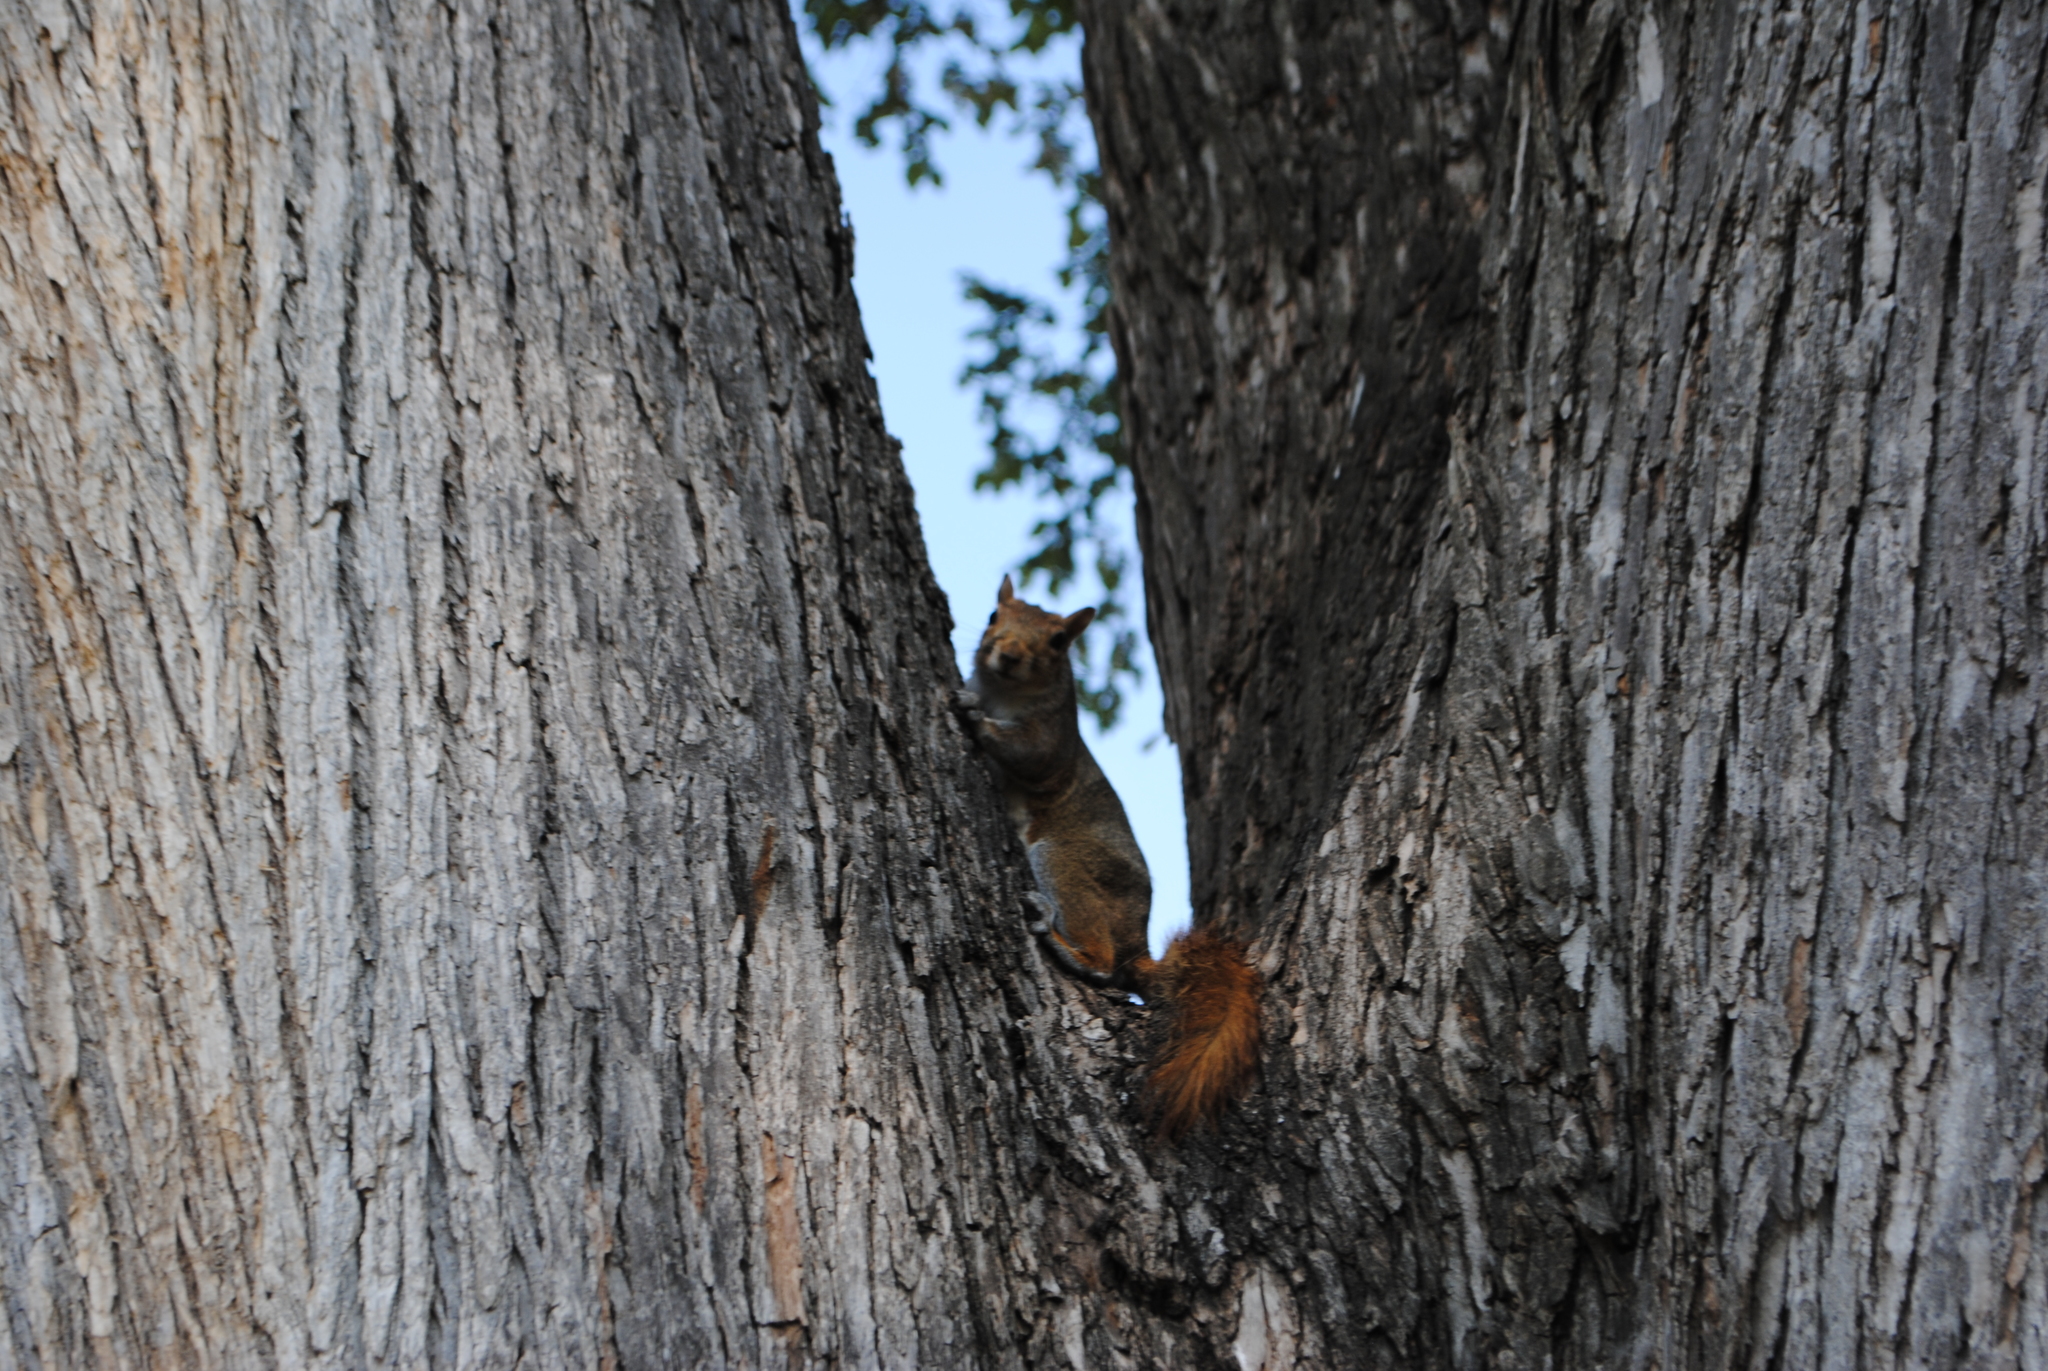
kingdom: Animalia
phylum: Chordata
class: Mammalia
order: Rodentia
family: Sciuridae
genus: Sciurus
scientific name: Sciurus carolinensis
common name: Eastern gray squirrel
